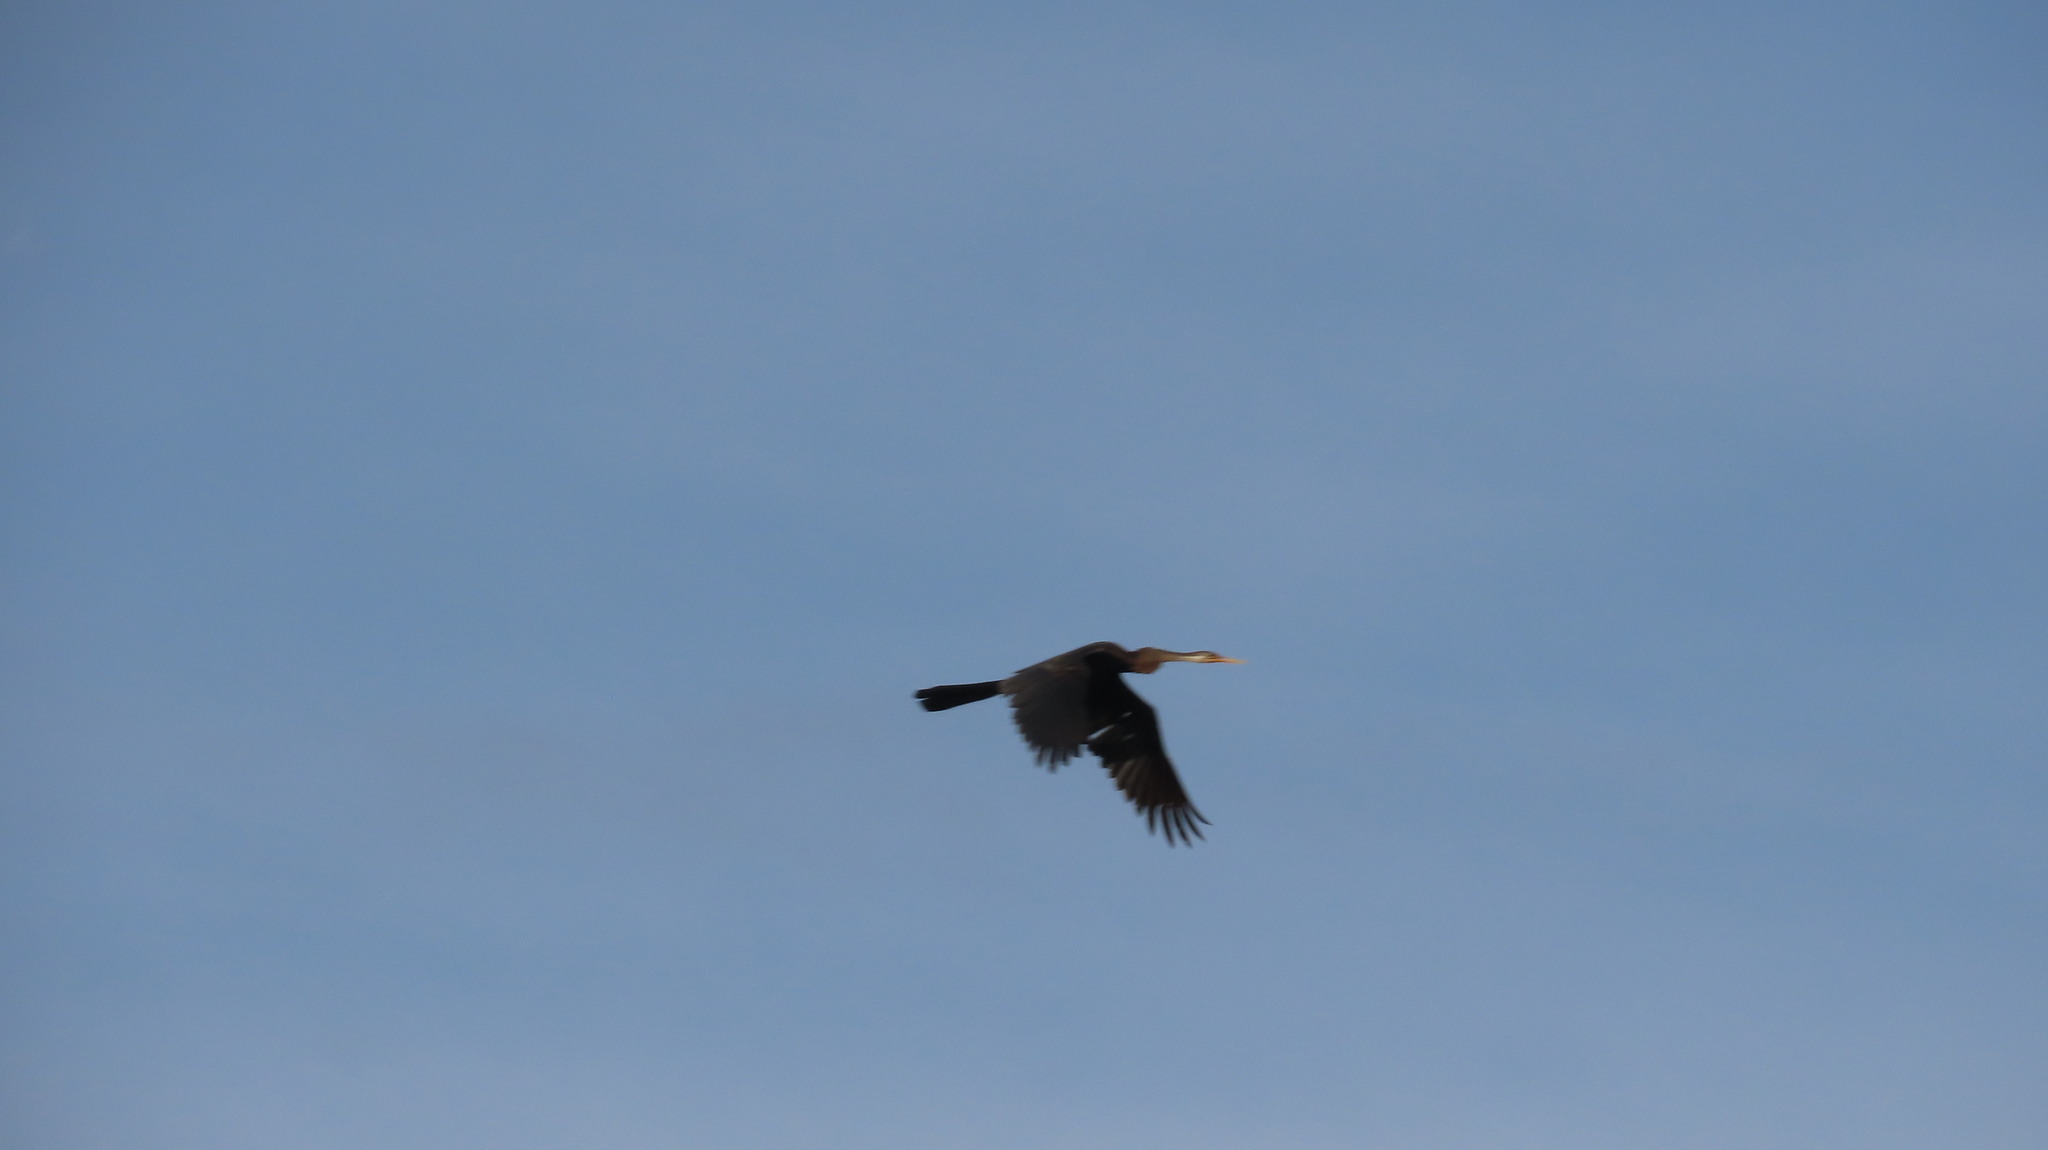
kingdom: Animalia
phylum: Chordata
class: Aves
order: Suliformes
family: Anhingidae
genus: Anhinga
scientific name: Anhinga melanogaster
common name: Oriental darter
